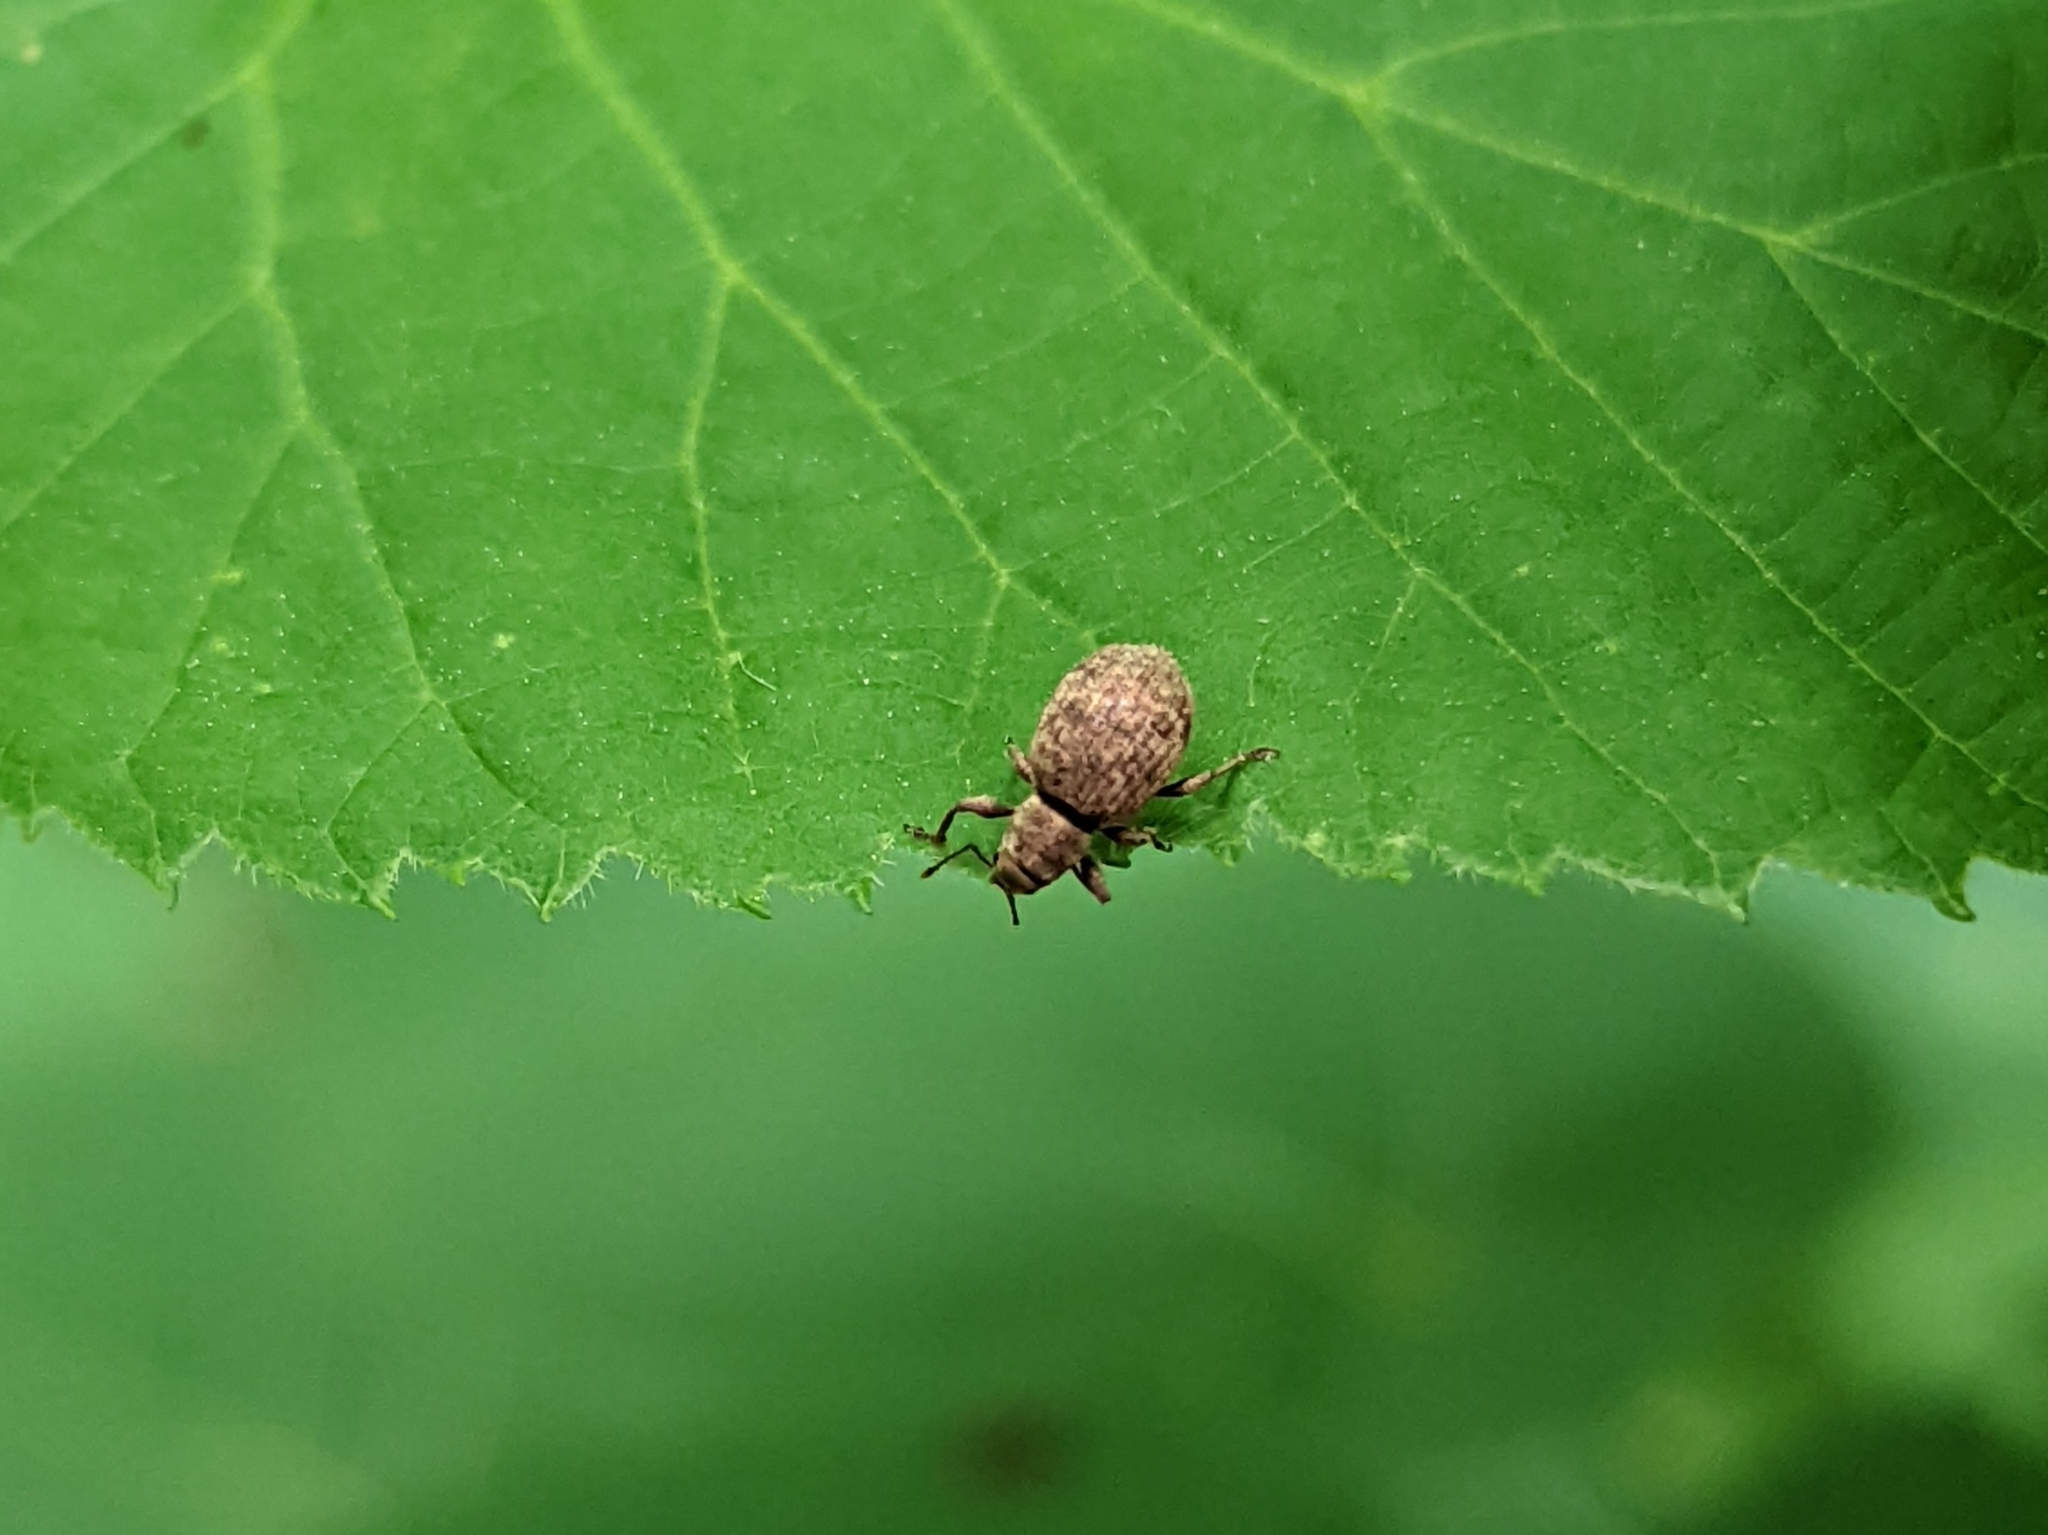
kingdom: Animalia
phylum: Arthropoda
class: Insecta
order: Coleoptera
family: Curculionidae
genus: Myosides
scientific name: Myosides seriehispidus
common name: Broadnosed weevil
